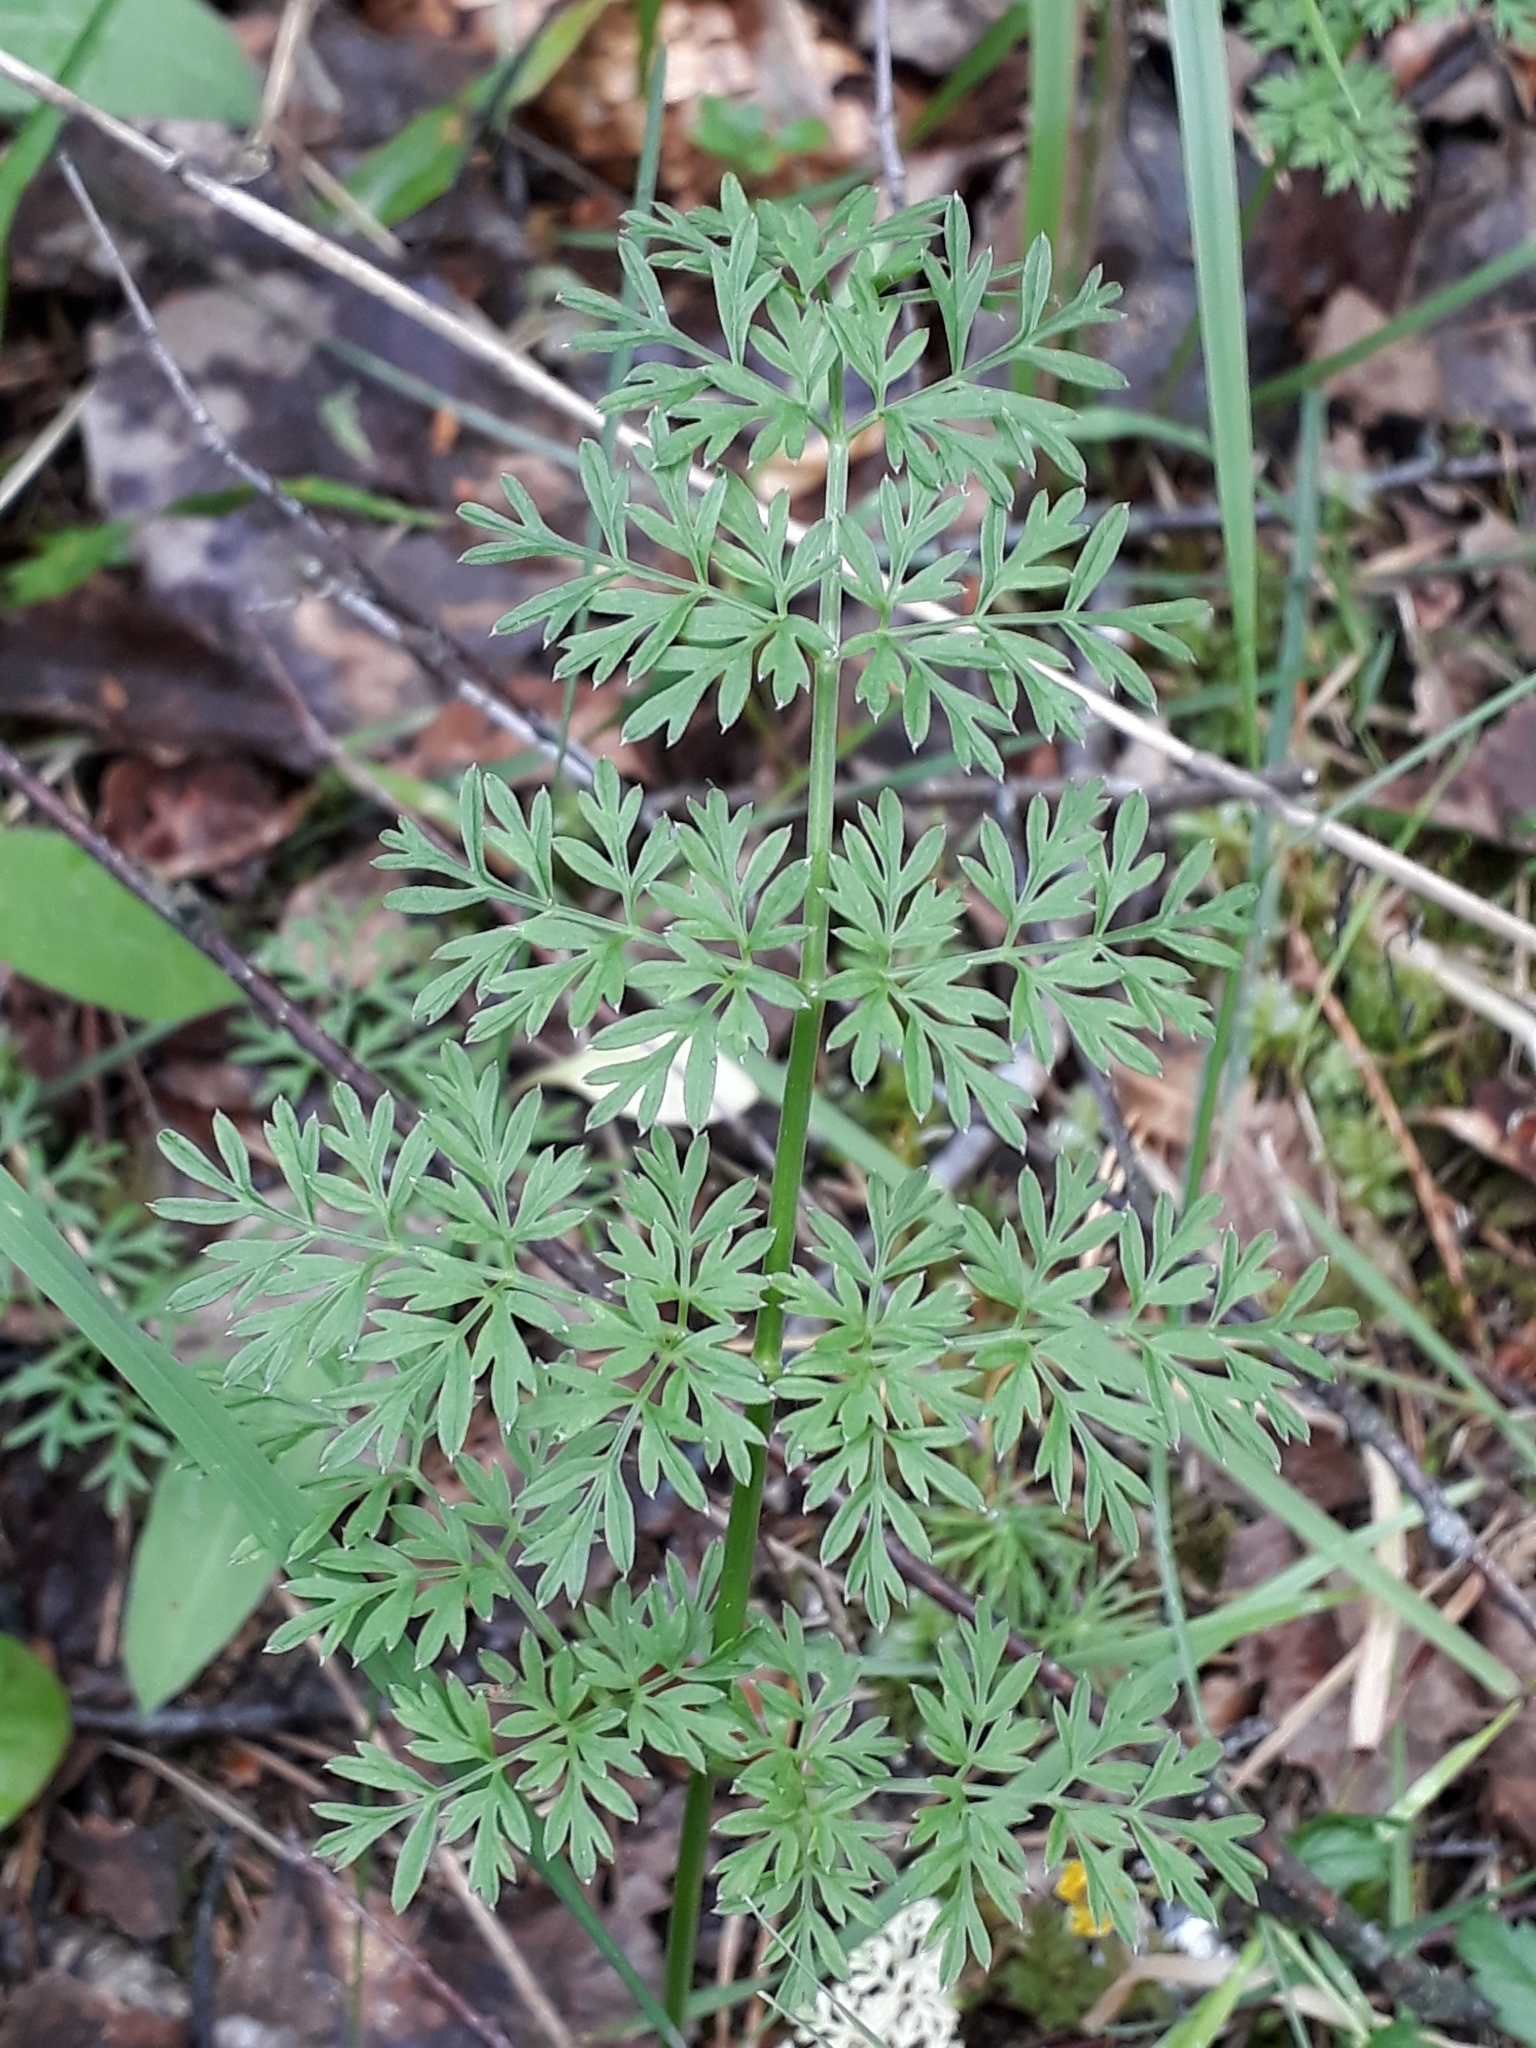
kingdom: Plantae
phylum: Tracheophyta
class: Magnoliopsida
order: Apiales
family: Apiaceae
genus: Selinum
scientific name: Selinum carvifolia
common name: Cambridge milk-parsley
